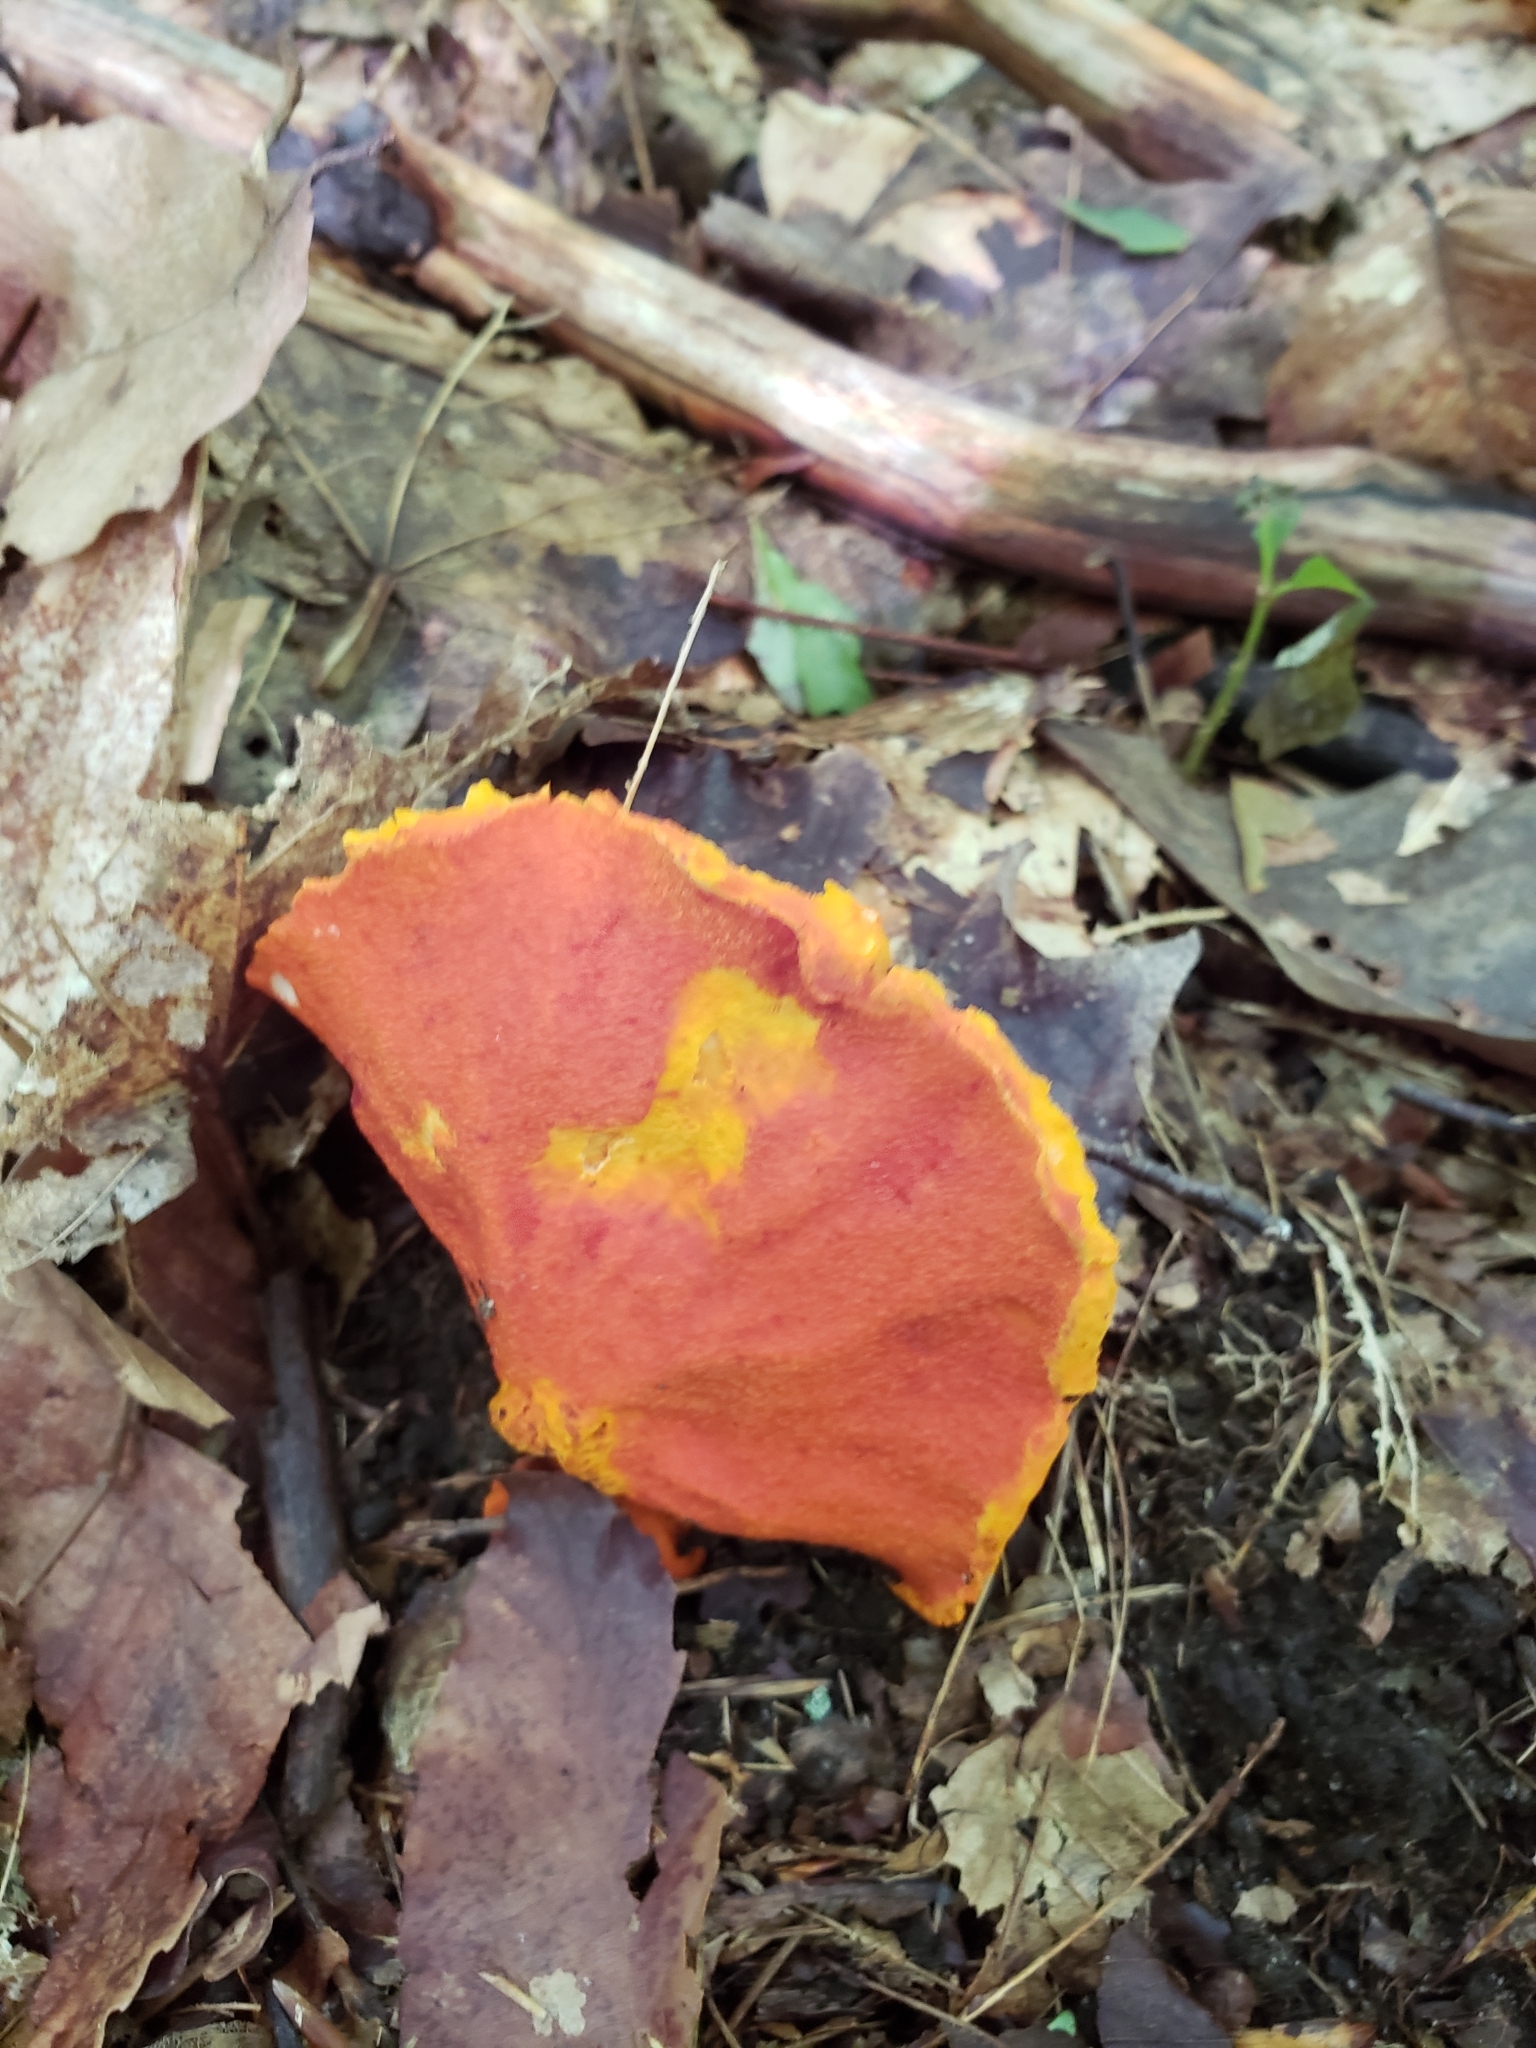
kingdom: Fungi
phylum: Ascomycota
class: Sordariomycetes
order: Hypocreales
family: Hypocreaceae
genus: Hypomyces
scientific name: Hypomyces lactifluorum
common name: Lobster mushroom
